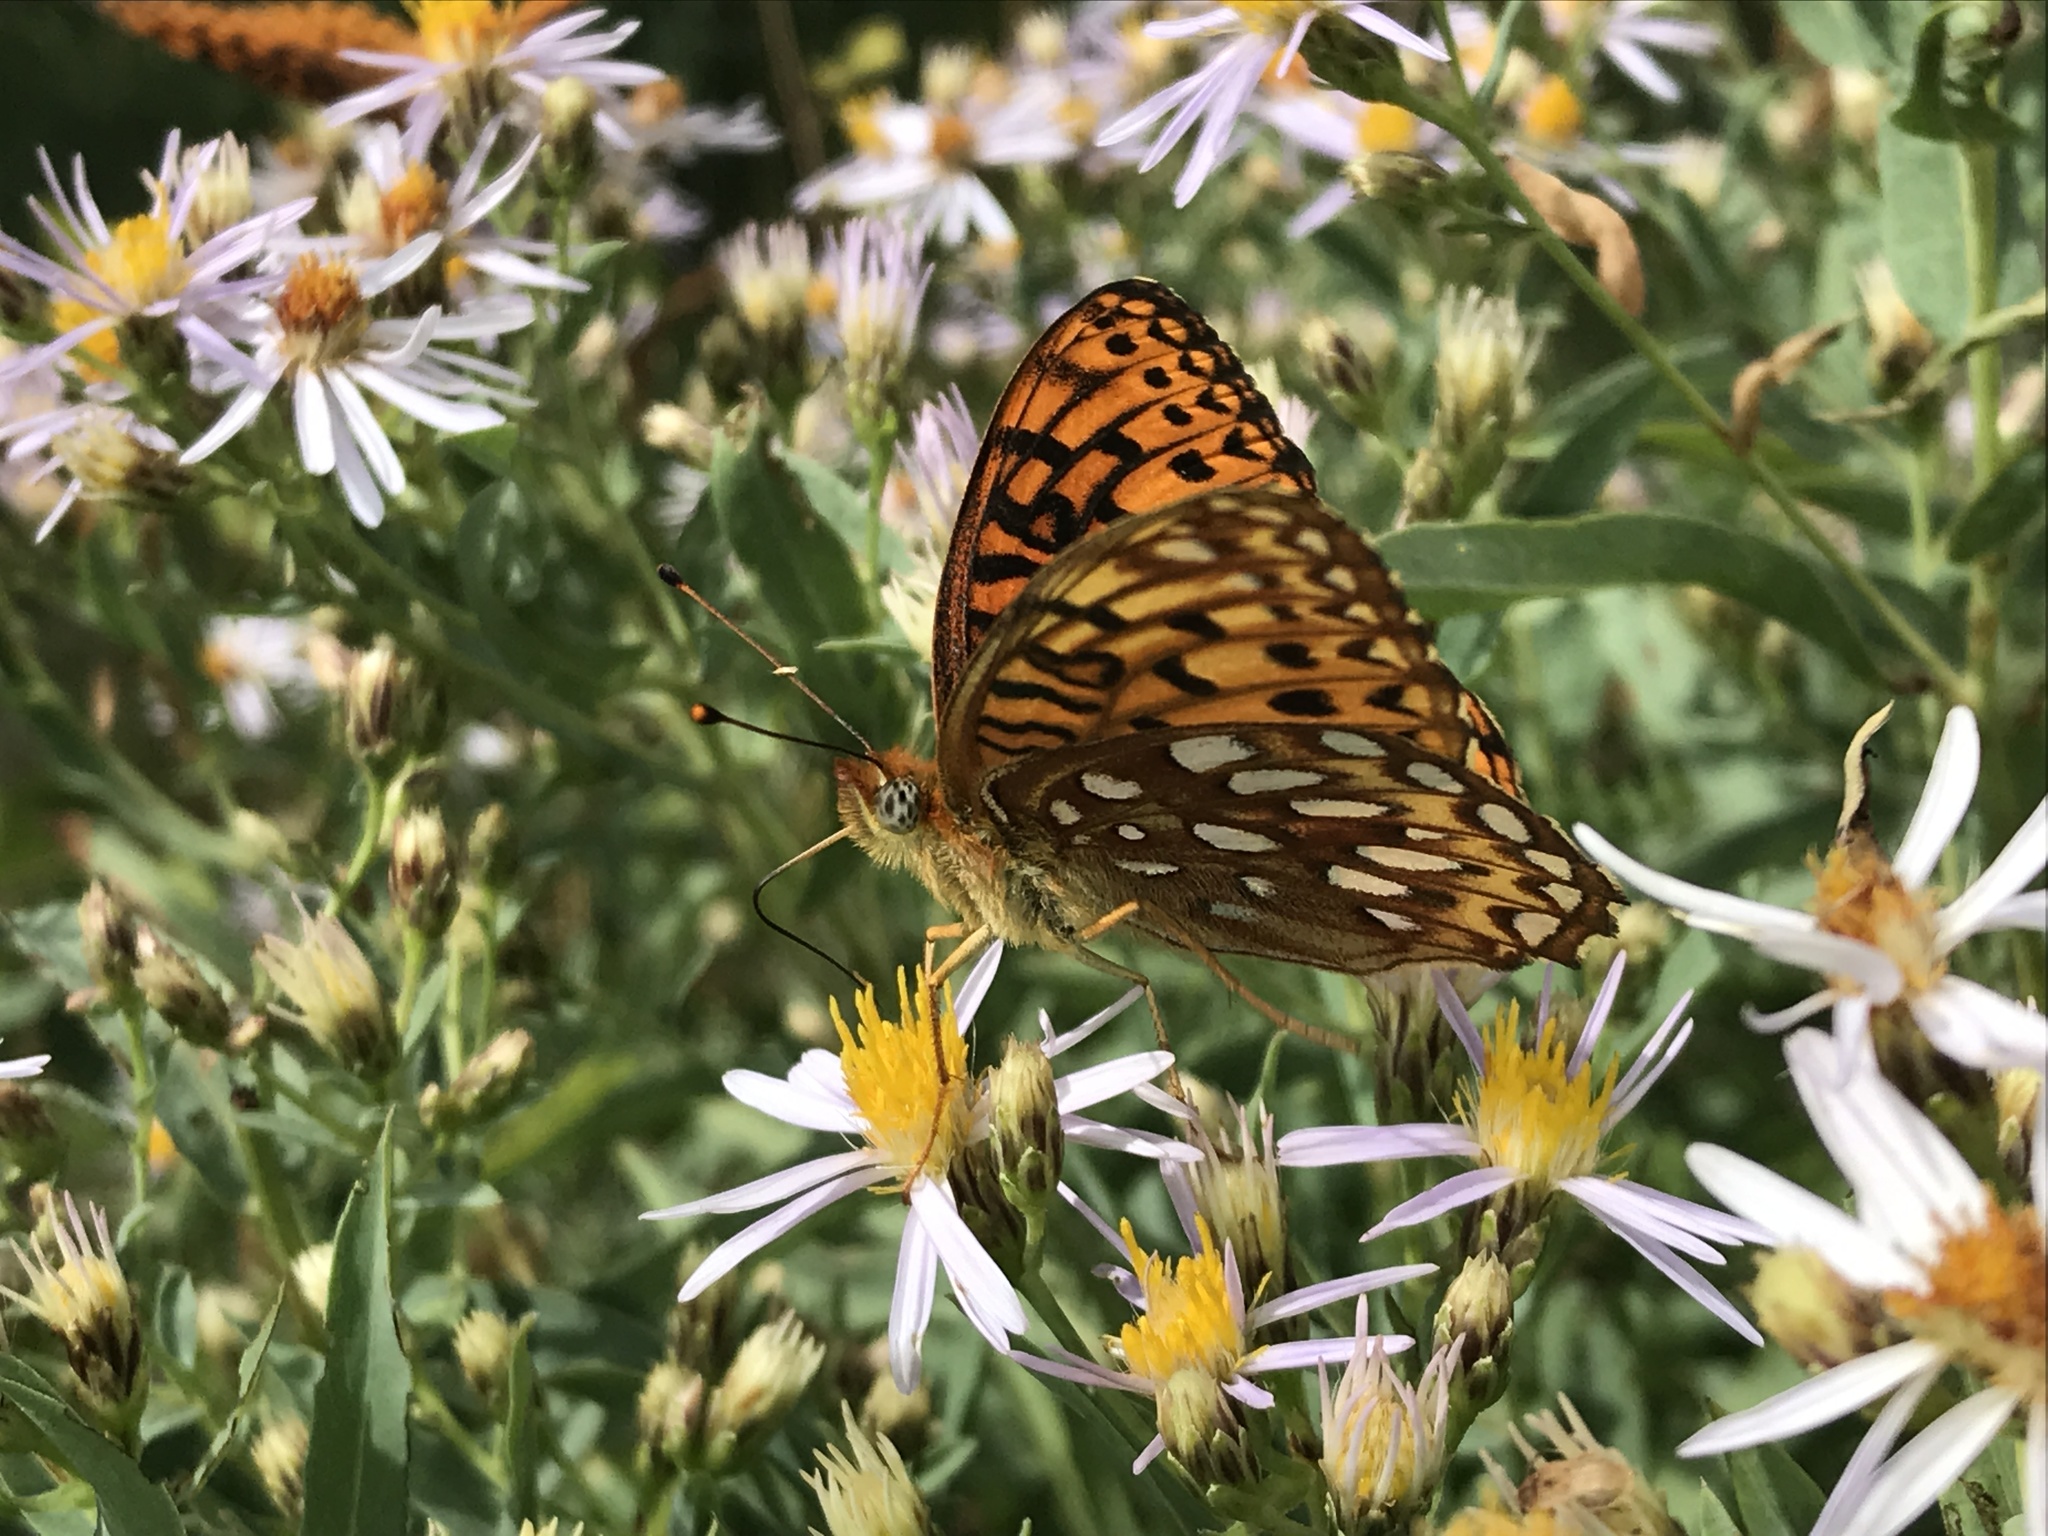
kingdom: Animalia
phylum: Arthropoda
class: Insecta
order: Lepidoptera
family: Nymphalidae
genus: Speyeria
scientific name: Speyeria atlantis
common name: Atlantis fritillary
